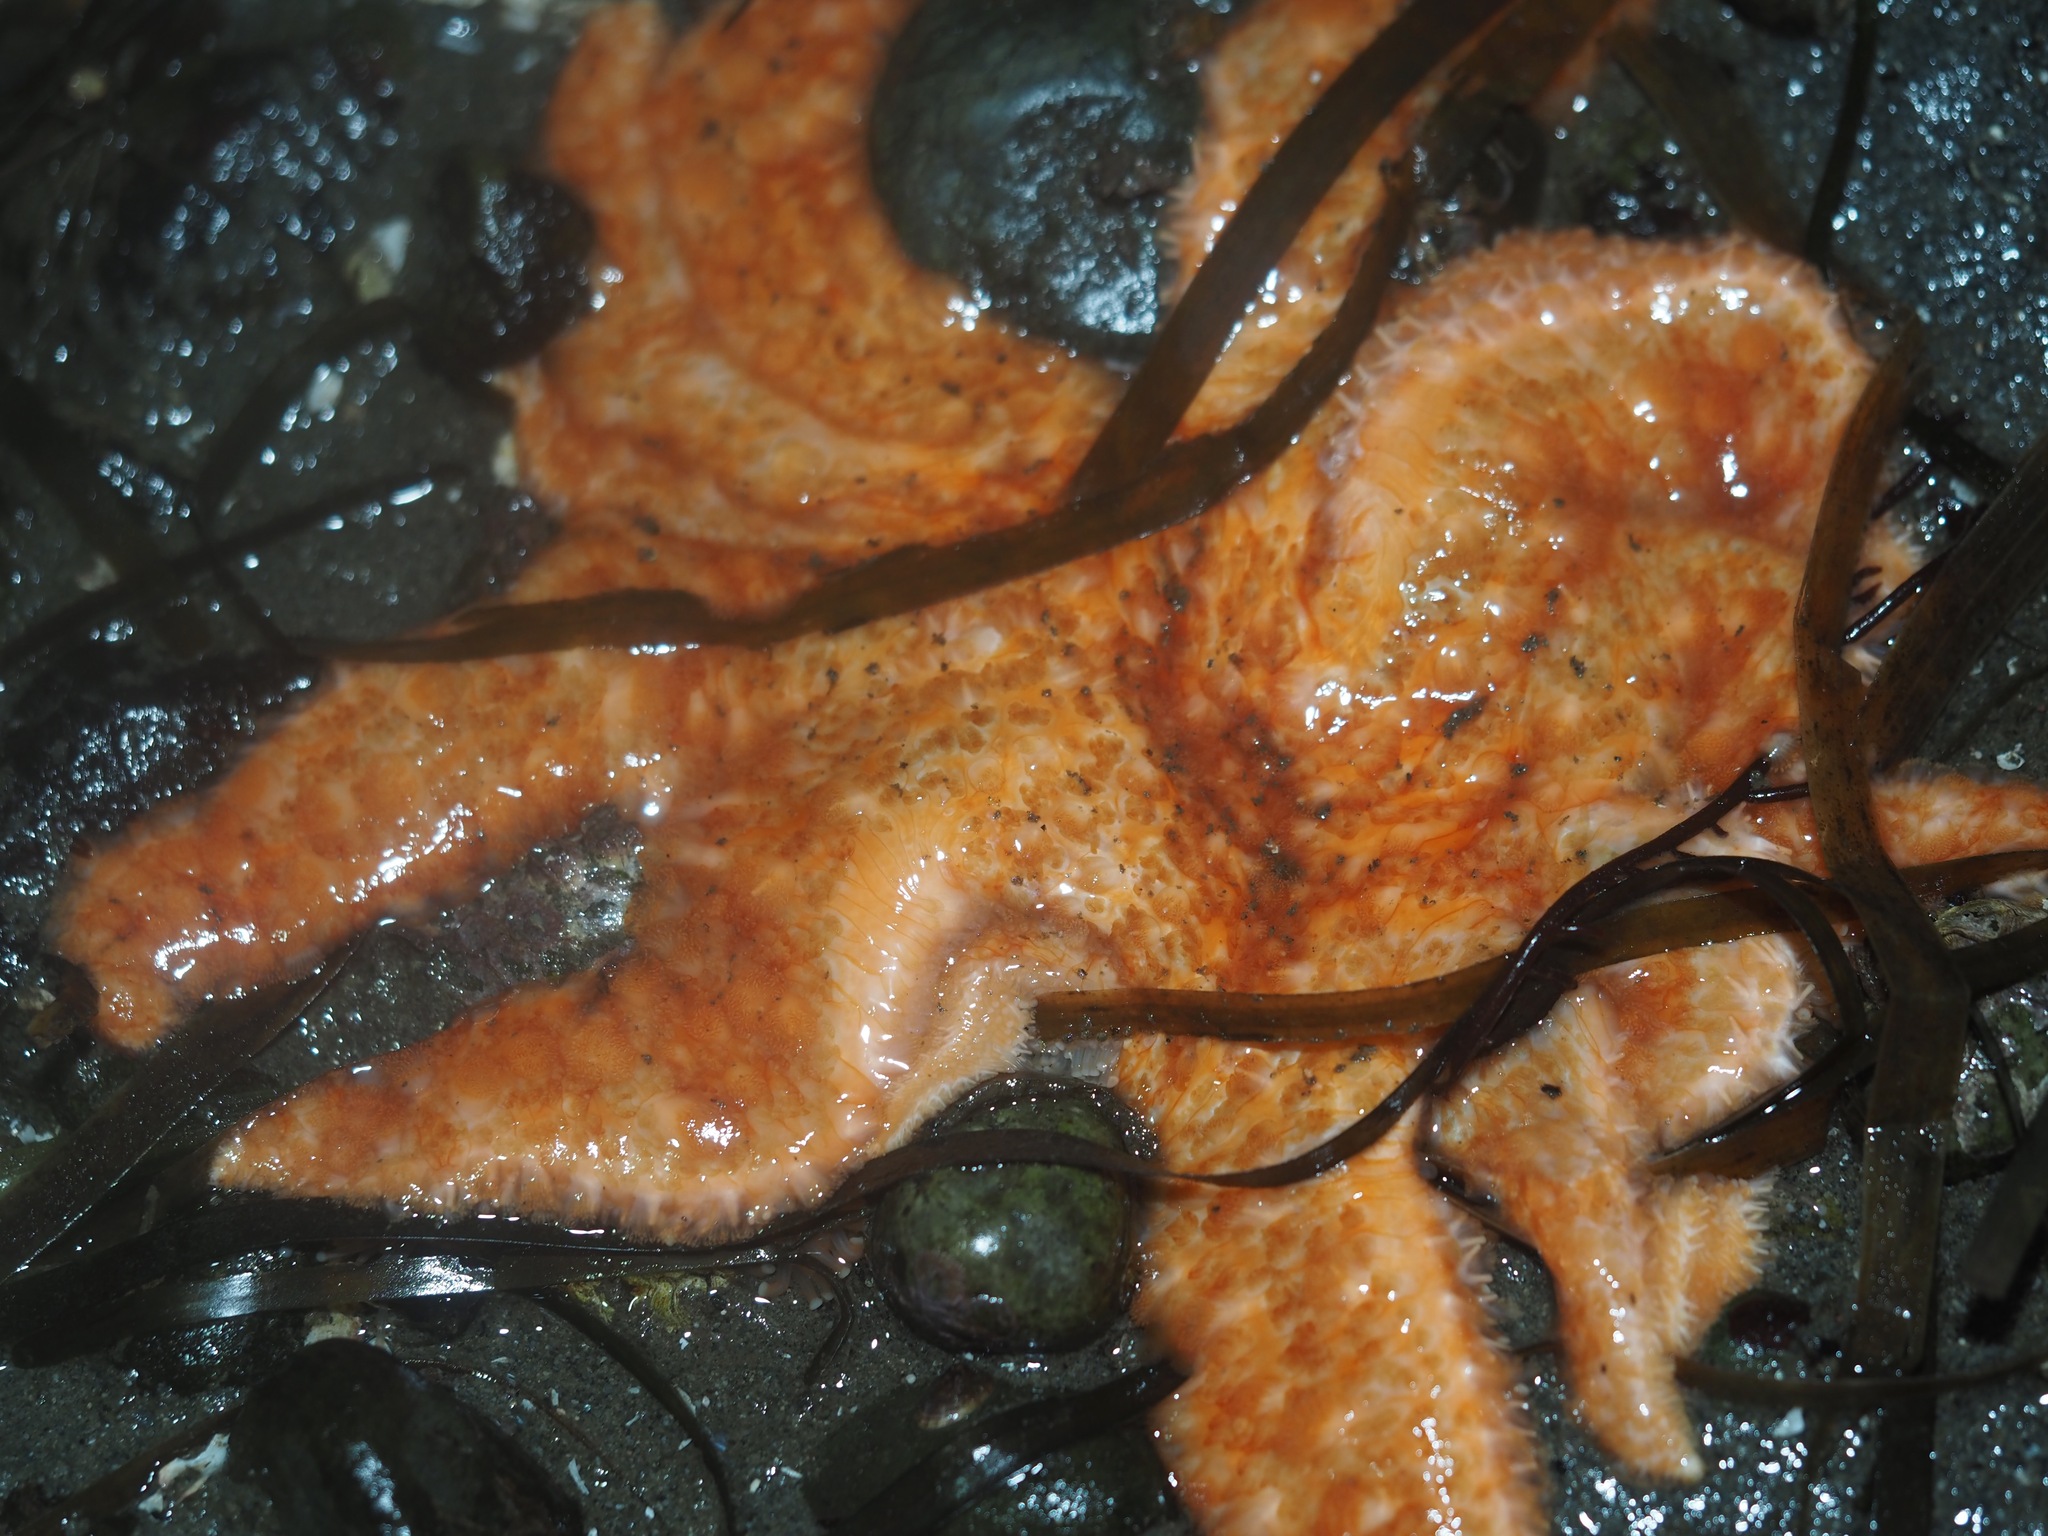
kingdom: Animalia
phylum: Echinodermata
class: Asteroidea
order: Forcipulatida
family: Asteriidae
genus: Pycnopodia
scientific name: Pycnopodia helianthoides
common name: Rag mop
